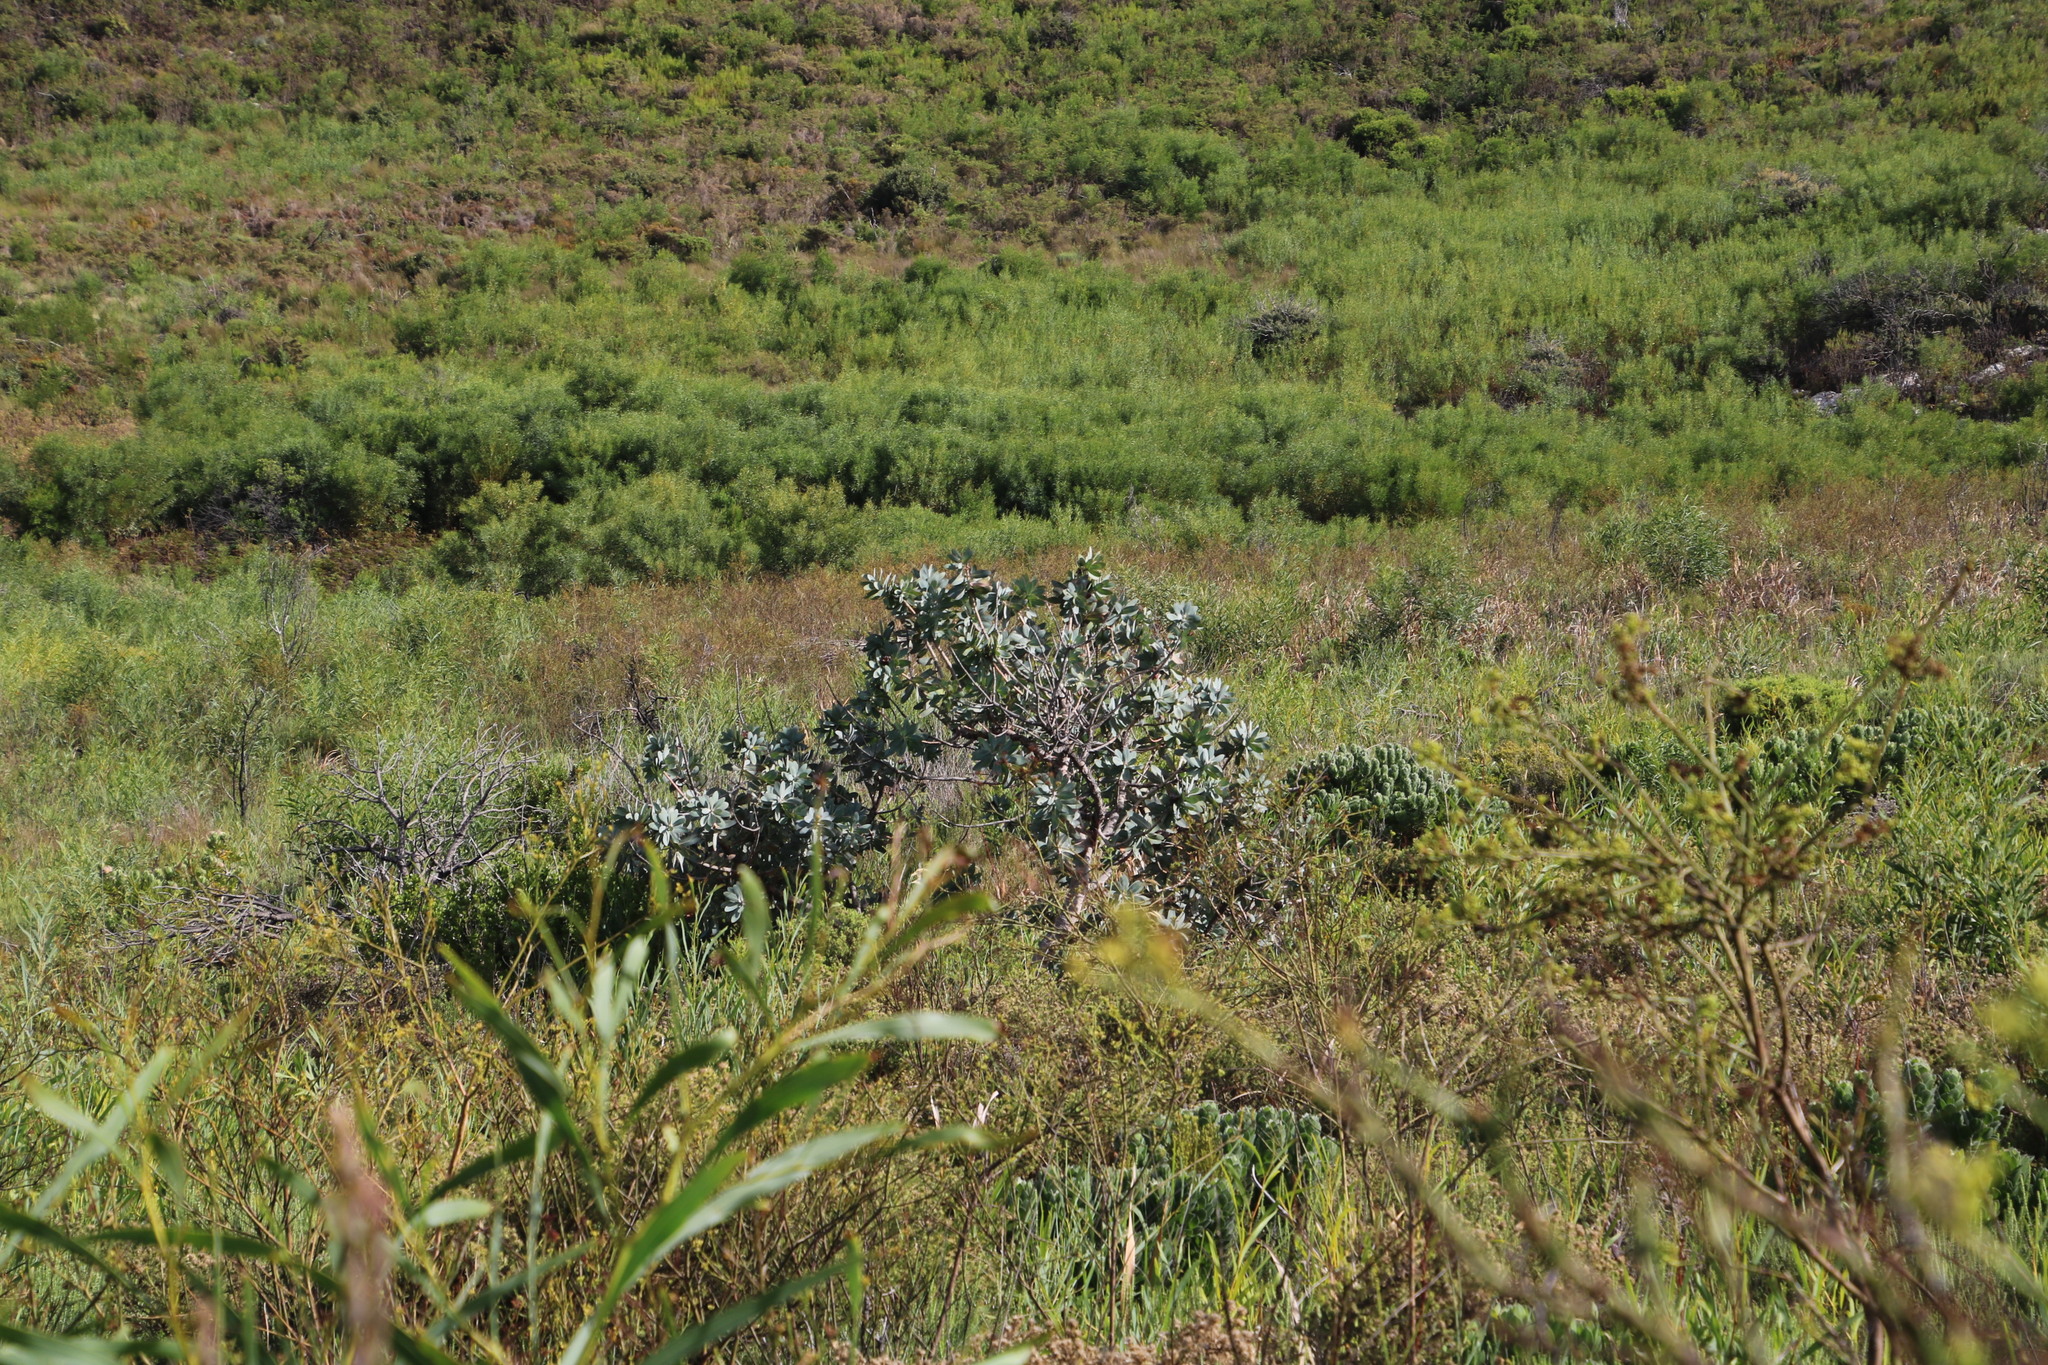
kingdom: Plantae
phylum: Tracheophyta
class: Magnoliopsida
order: Proteales
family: Proteaceae
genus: Protea
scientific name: Protea nitida
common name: Tree protea
